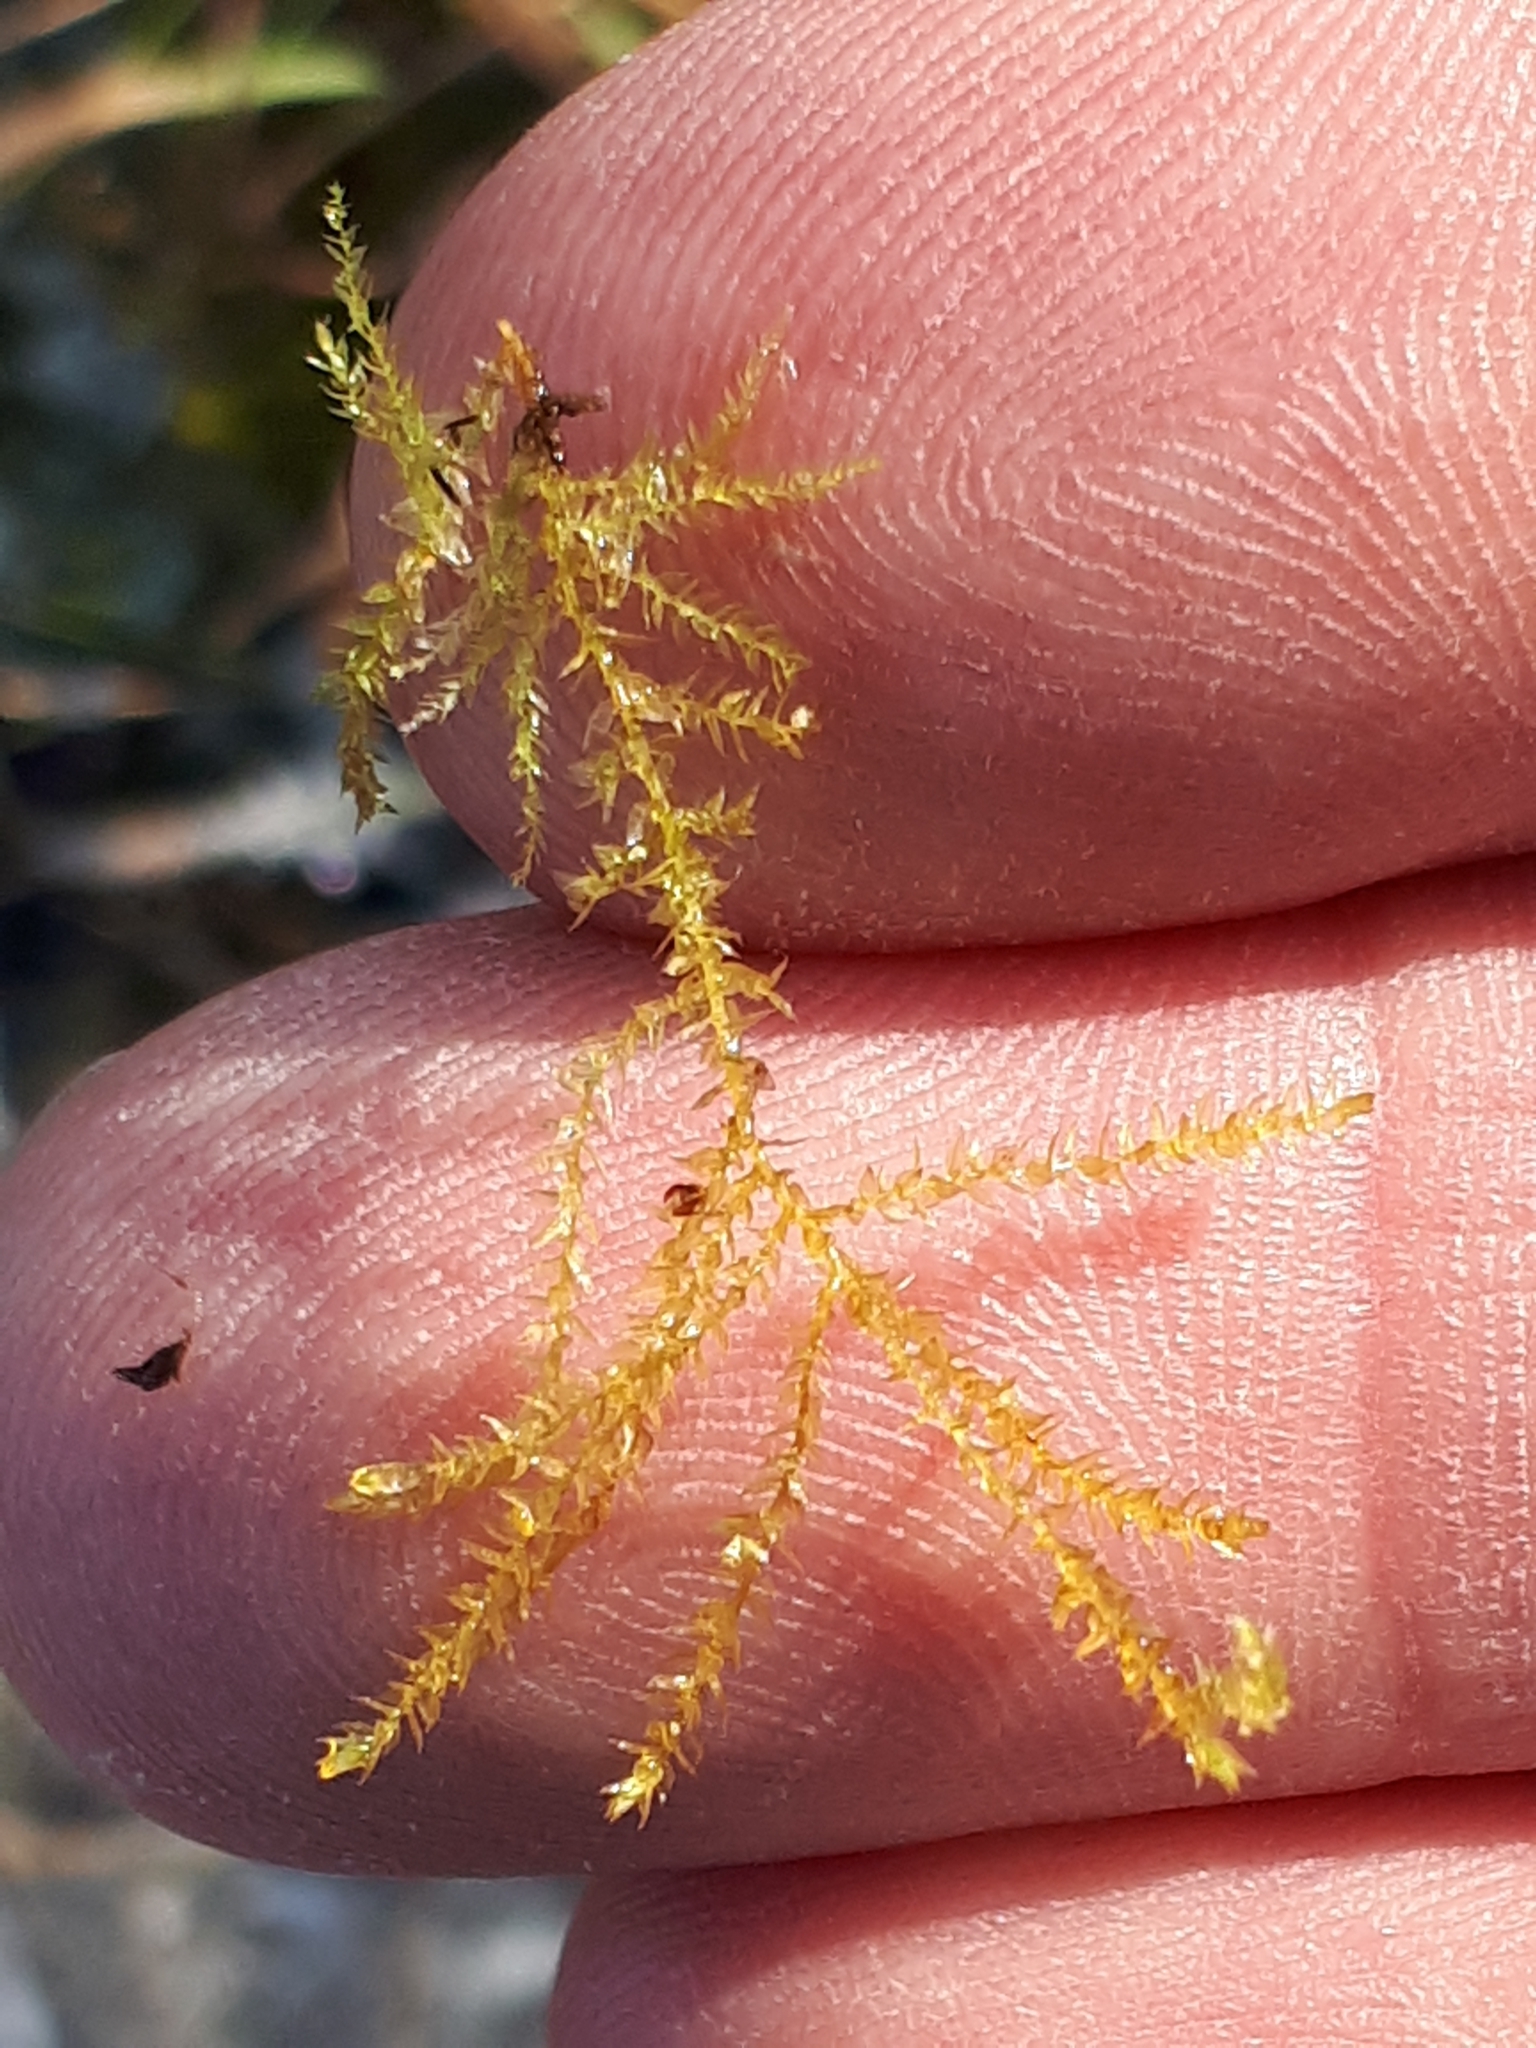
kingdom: Plantae
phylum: Bryophyta
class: Bryopsida
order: Hypnales
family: Brachytheciaceae
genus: Oxyrrhynchium
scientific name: Oxyrrhynchium hians
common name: Spreading beaked moss
